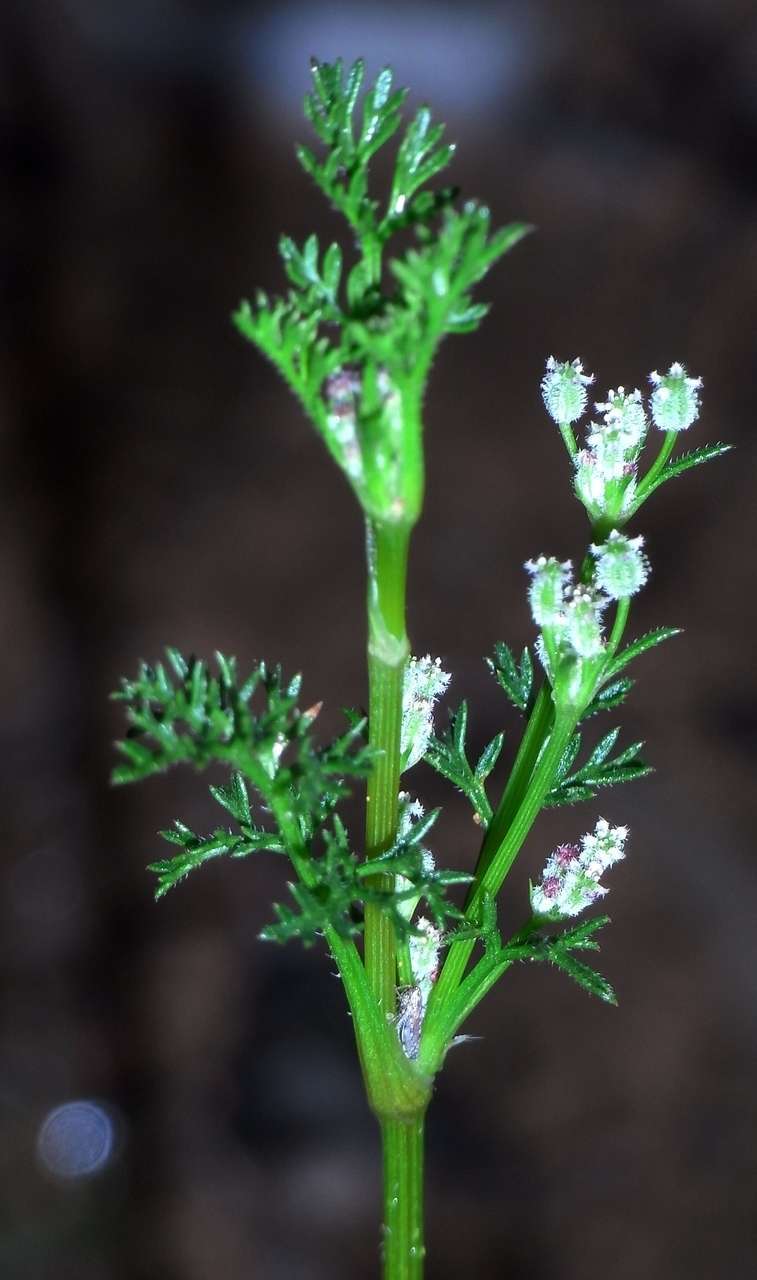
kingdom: Plantae
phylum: Tracheophyta
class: Magnoliopsida
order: Apiales
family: Apiaceae
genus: Daucus
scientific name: Daucus glochidiatus
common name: Australian carrot
